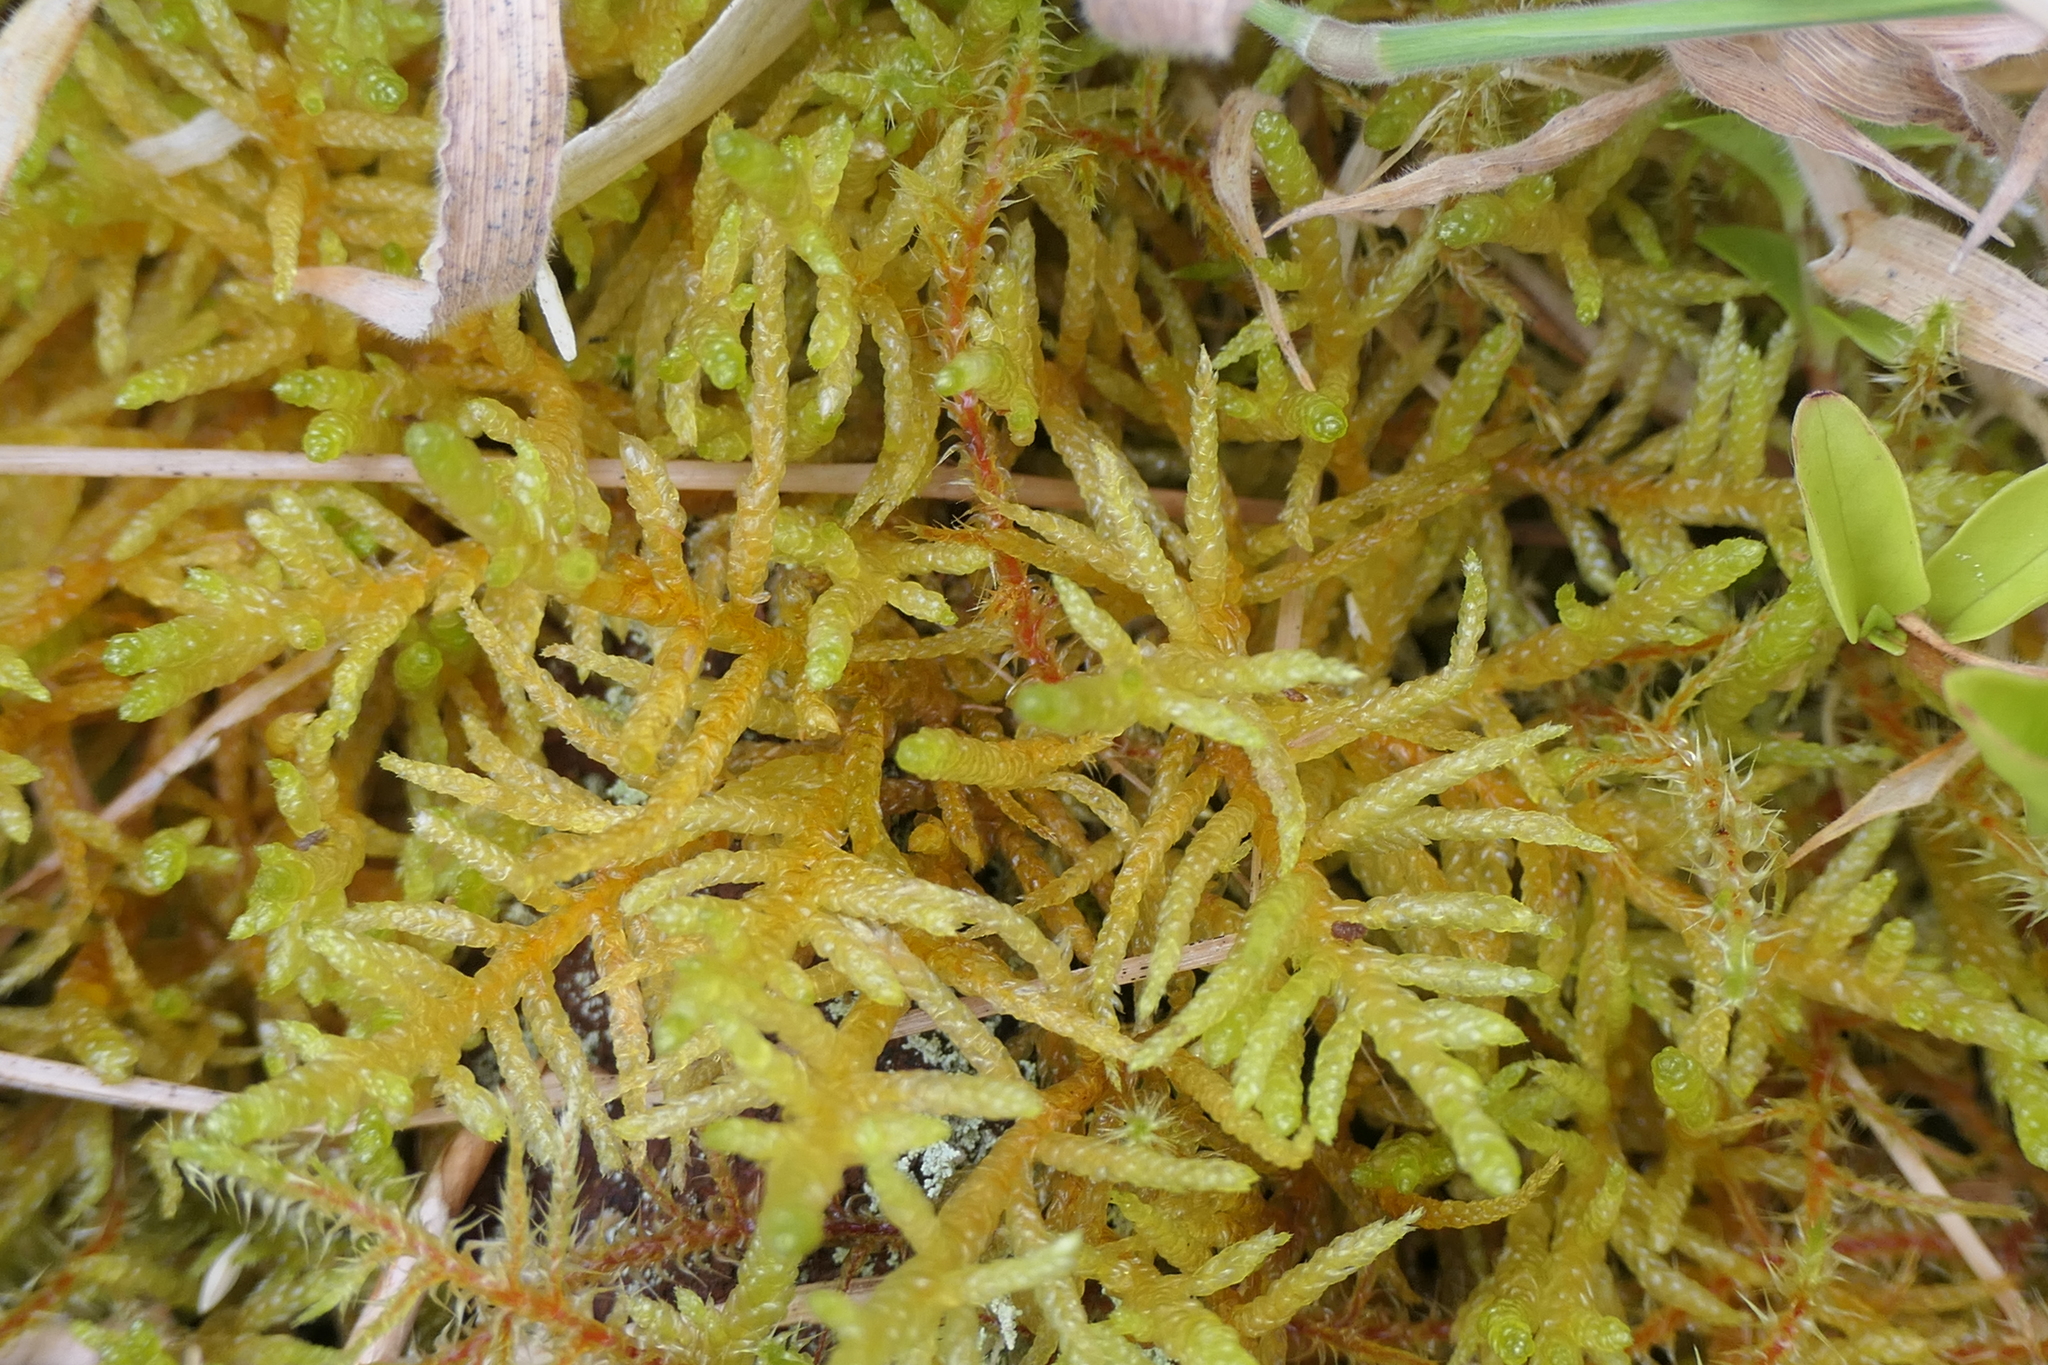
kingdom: Plantae
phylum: Bryophyta
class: Bryopsida
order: Hypnales
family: Brachytheciaceae
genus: Pseudoscleropodium
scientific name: Pseudoscleropodium purum
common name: Neat feather-moss
